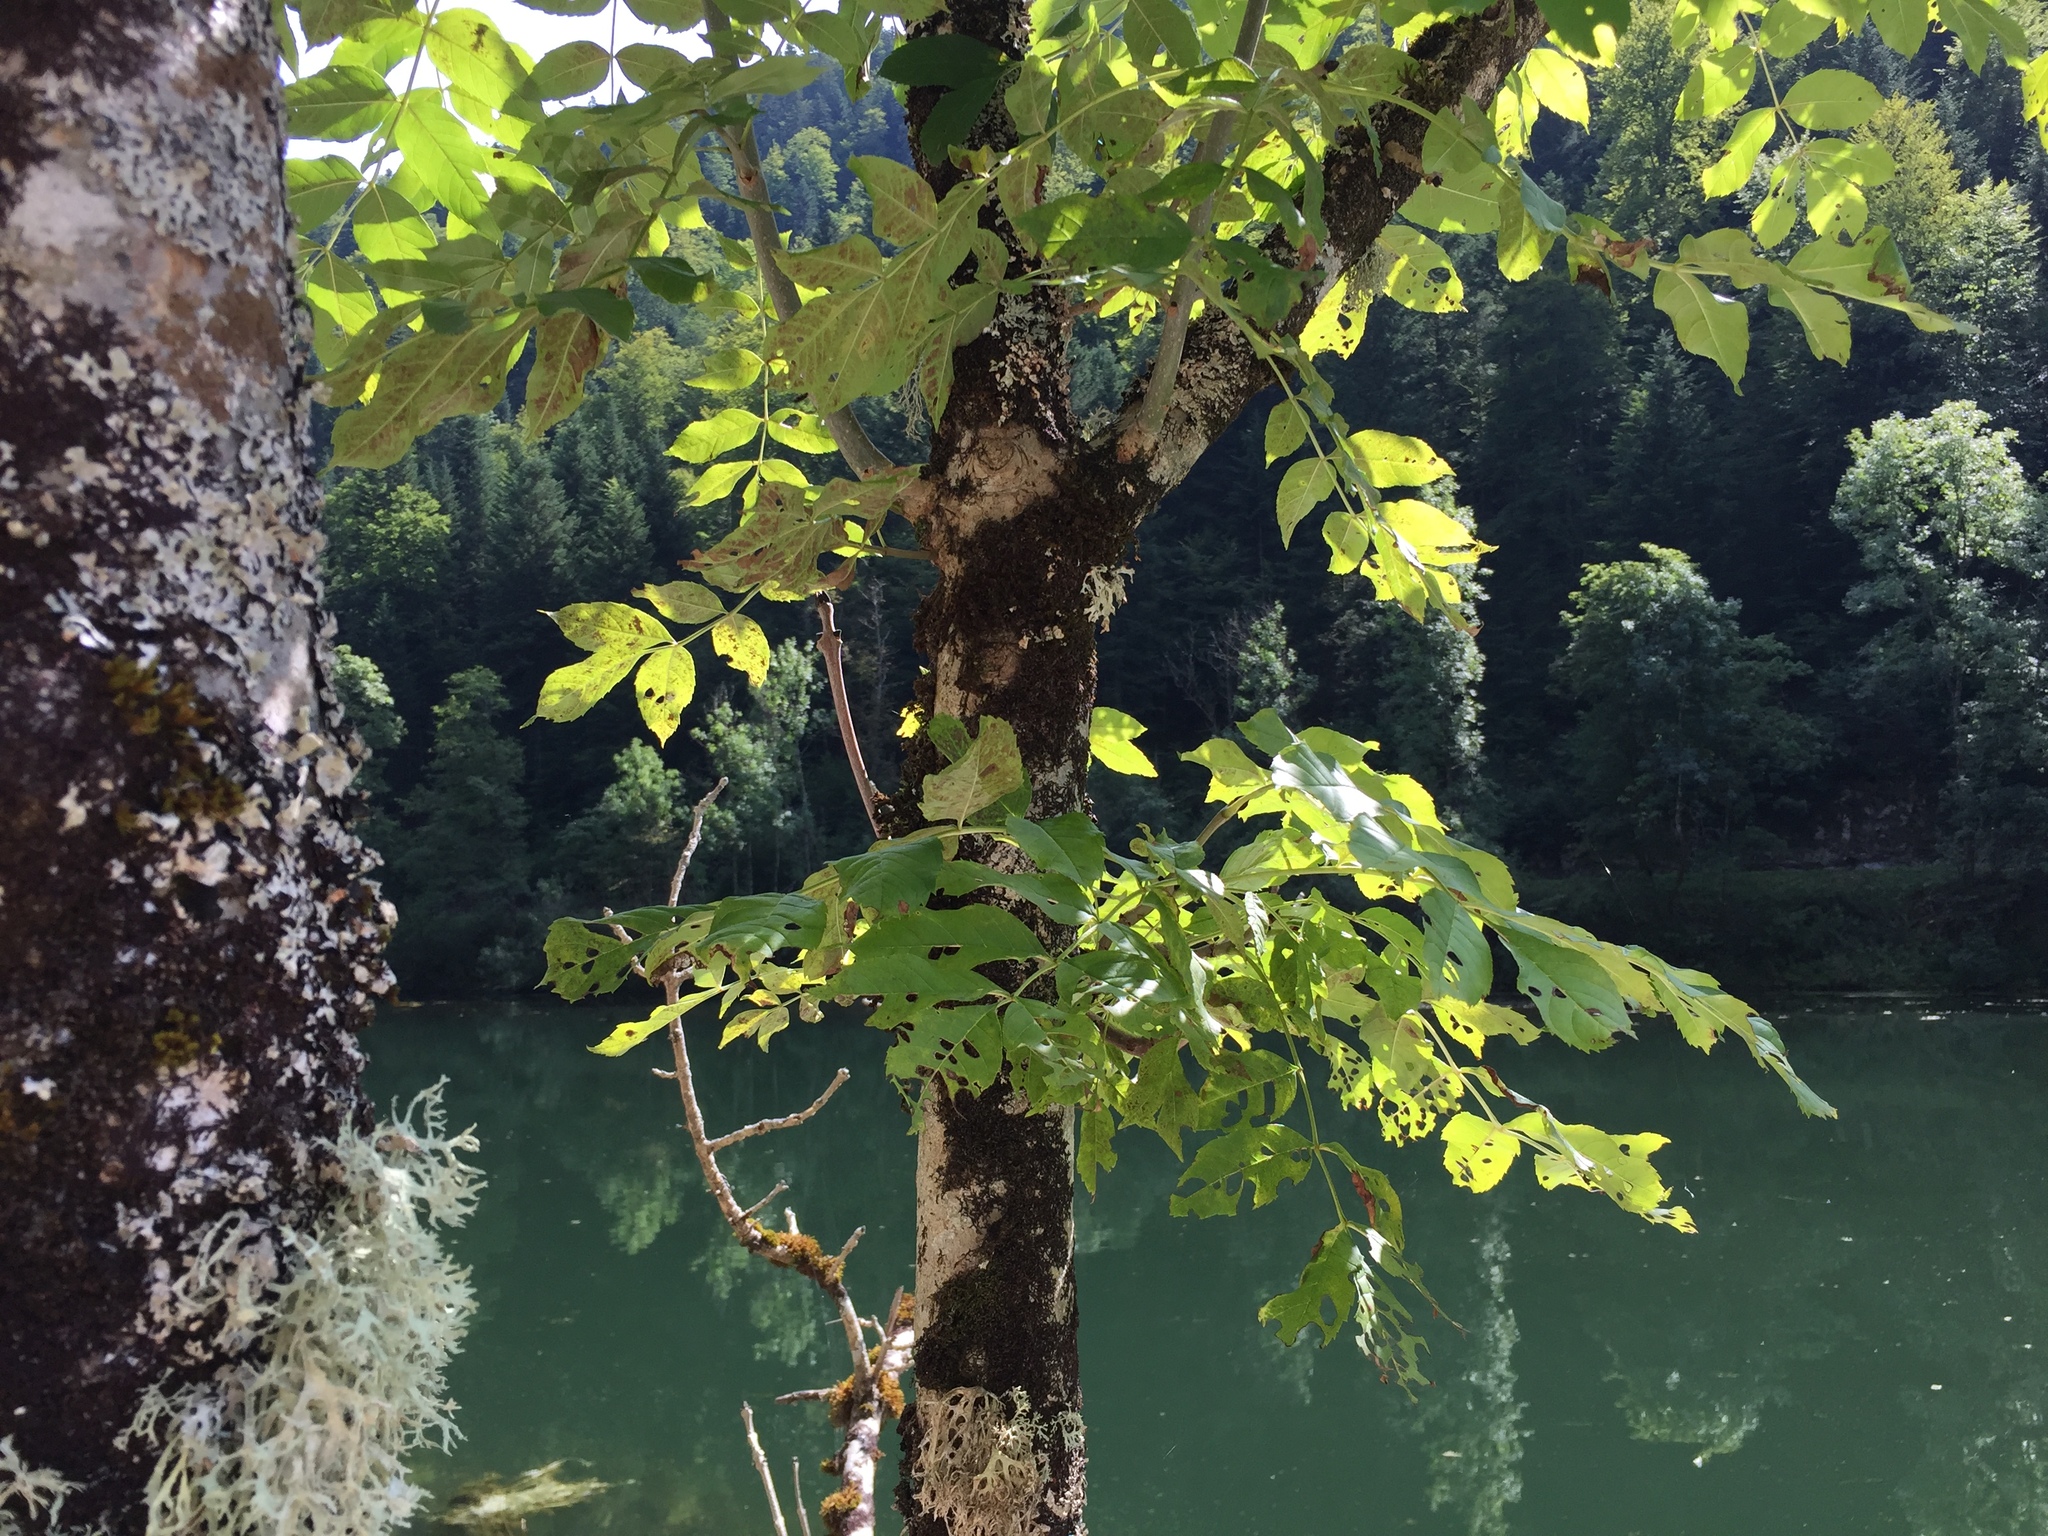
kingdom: Plantae
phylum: Tracheophyta
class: Magnoliopsida
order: Lamiales
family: Oleaceae
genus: Fraxinus
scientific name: Fraxinus excelsior
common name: European ash
